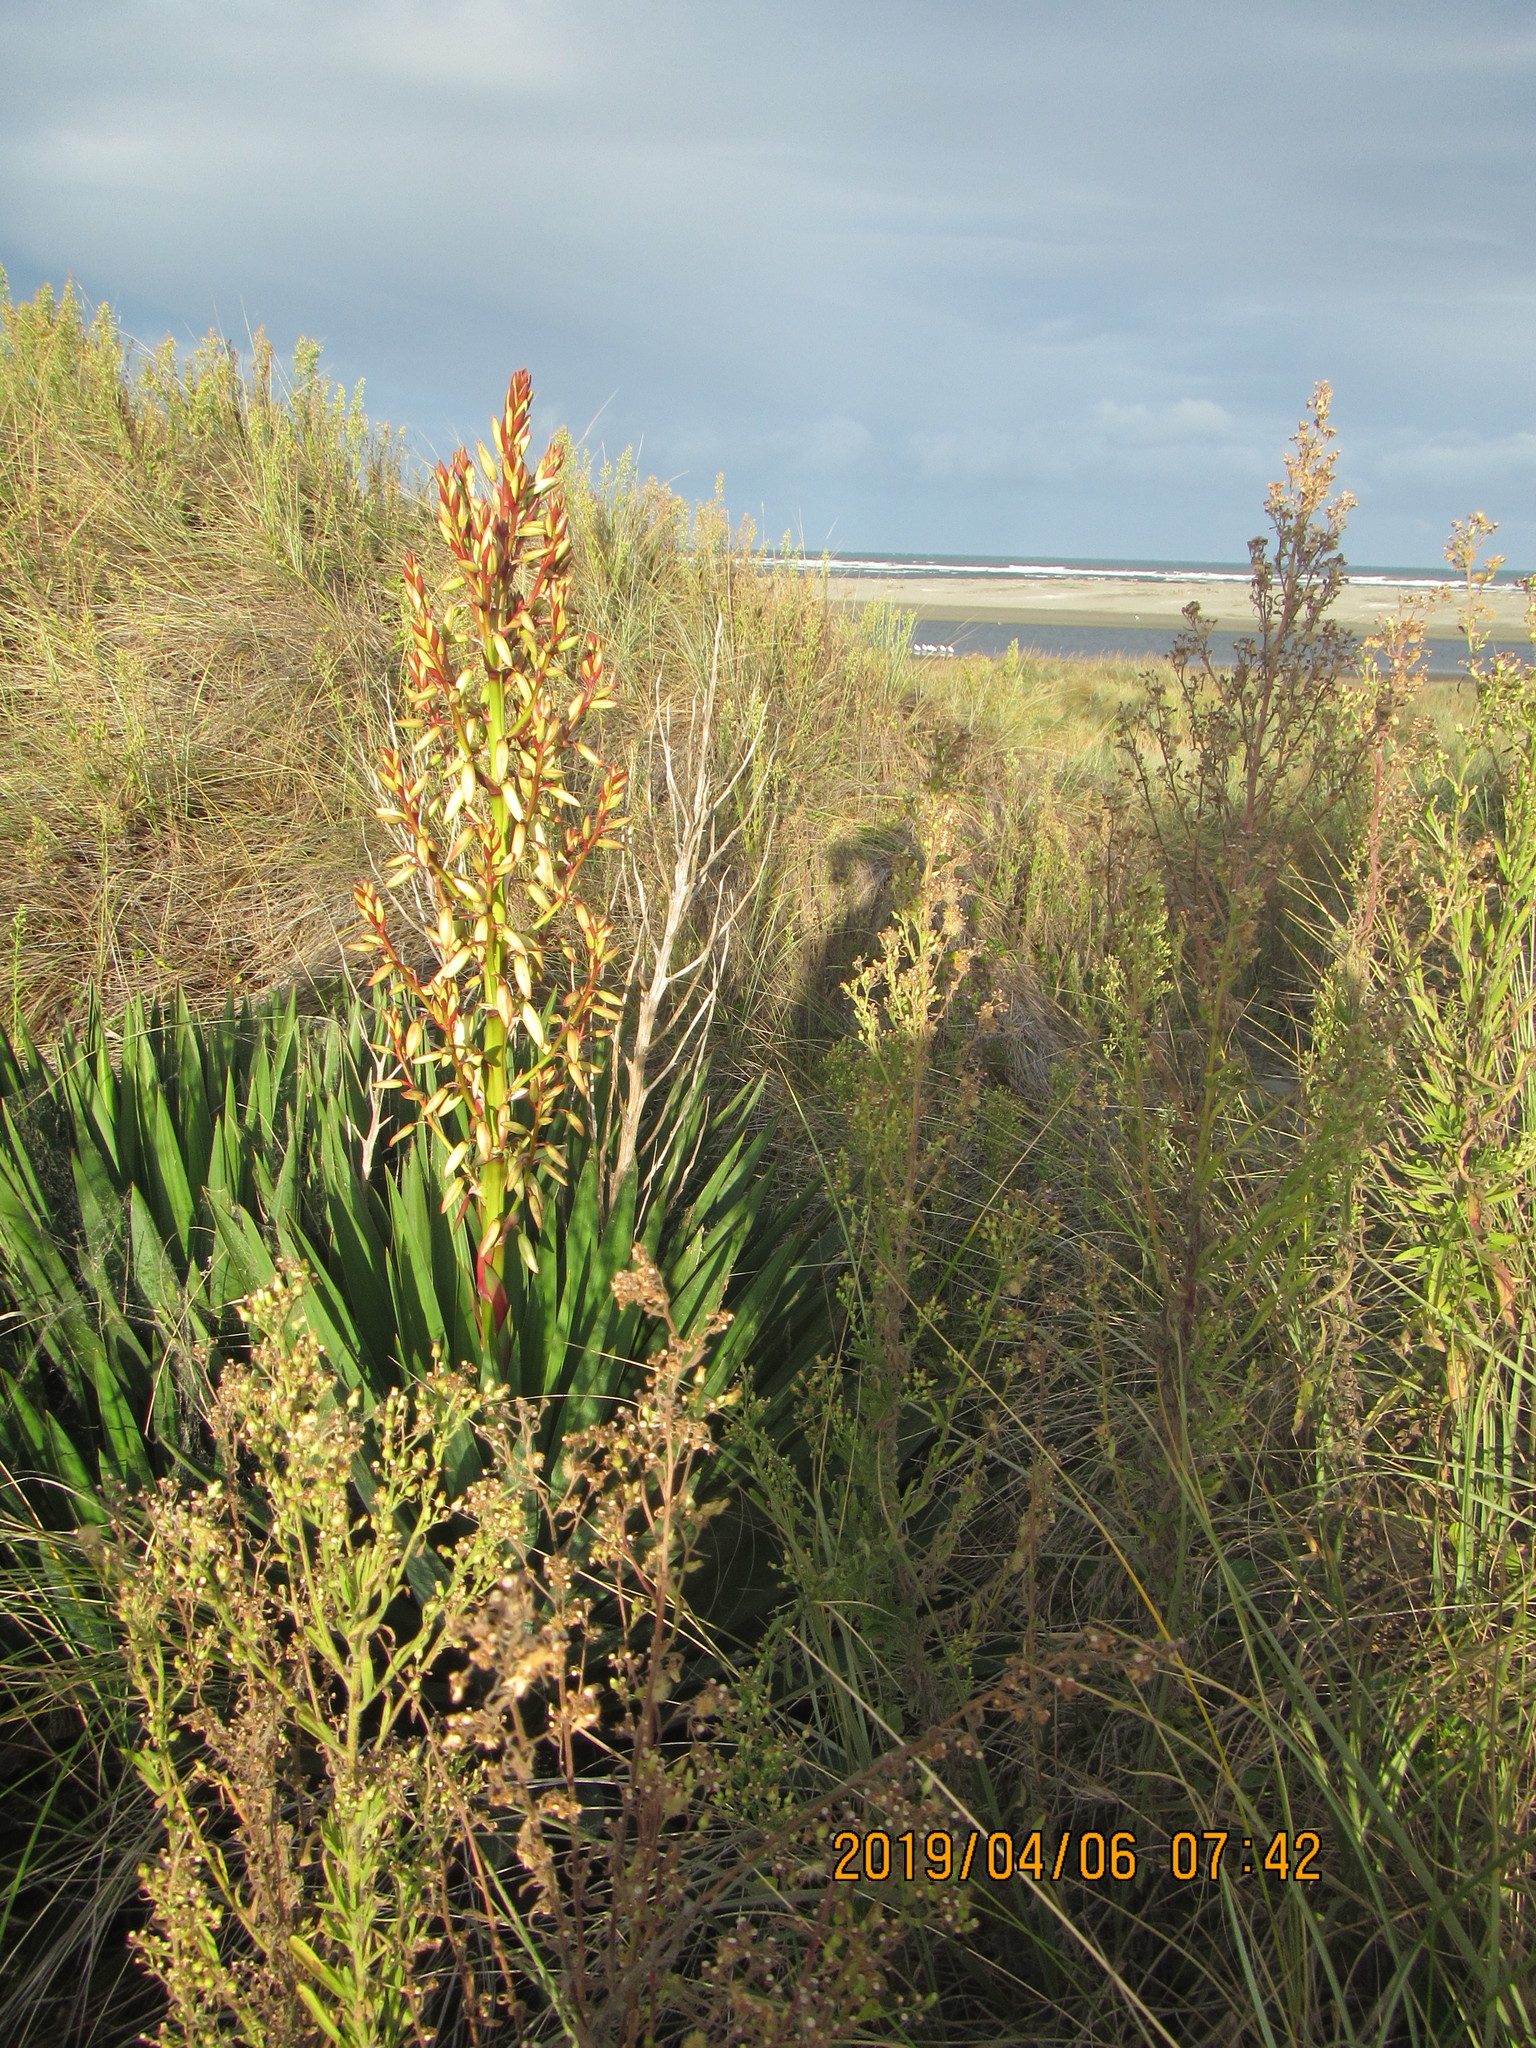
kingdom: Plantae
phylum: Tracheophyta
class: Liliopsida
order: Asparagales
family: Asparagaceae
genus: Yucca
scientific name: Yucca gloriosa
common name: Spanish-dagger
